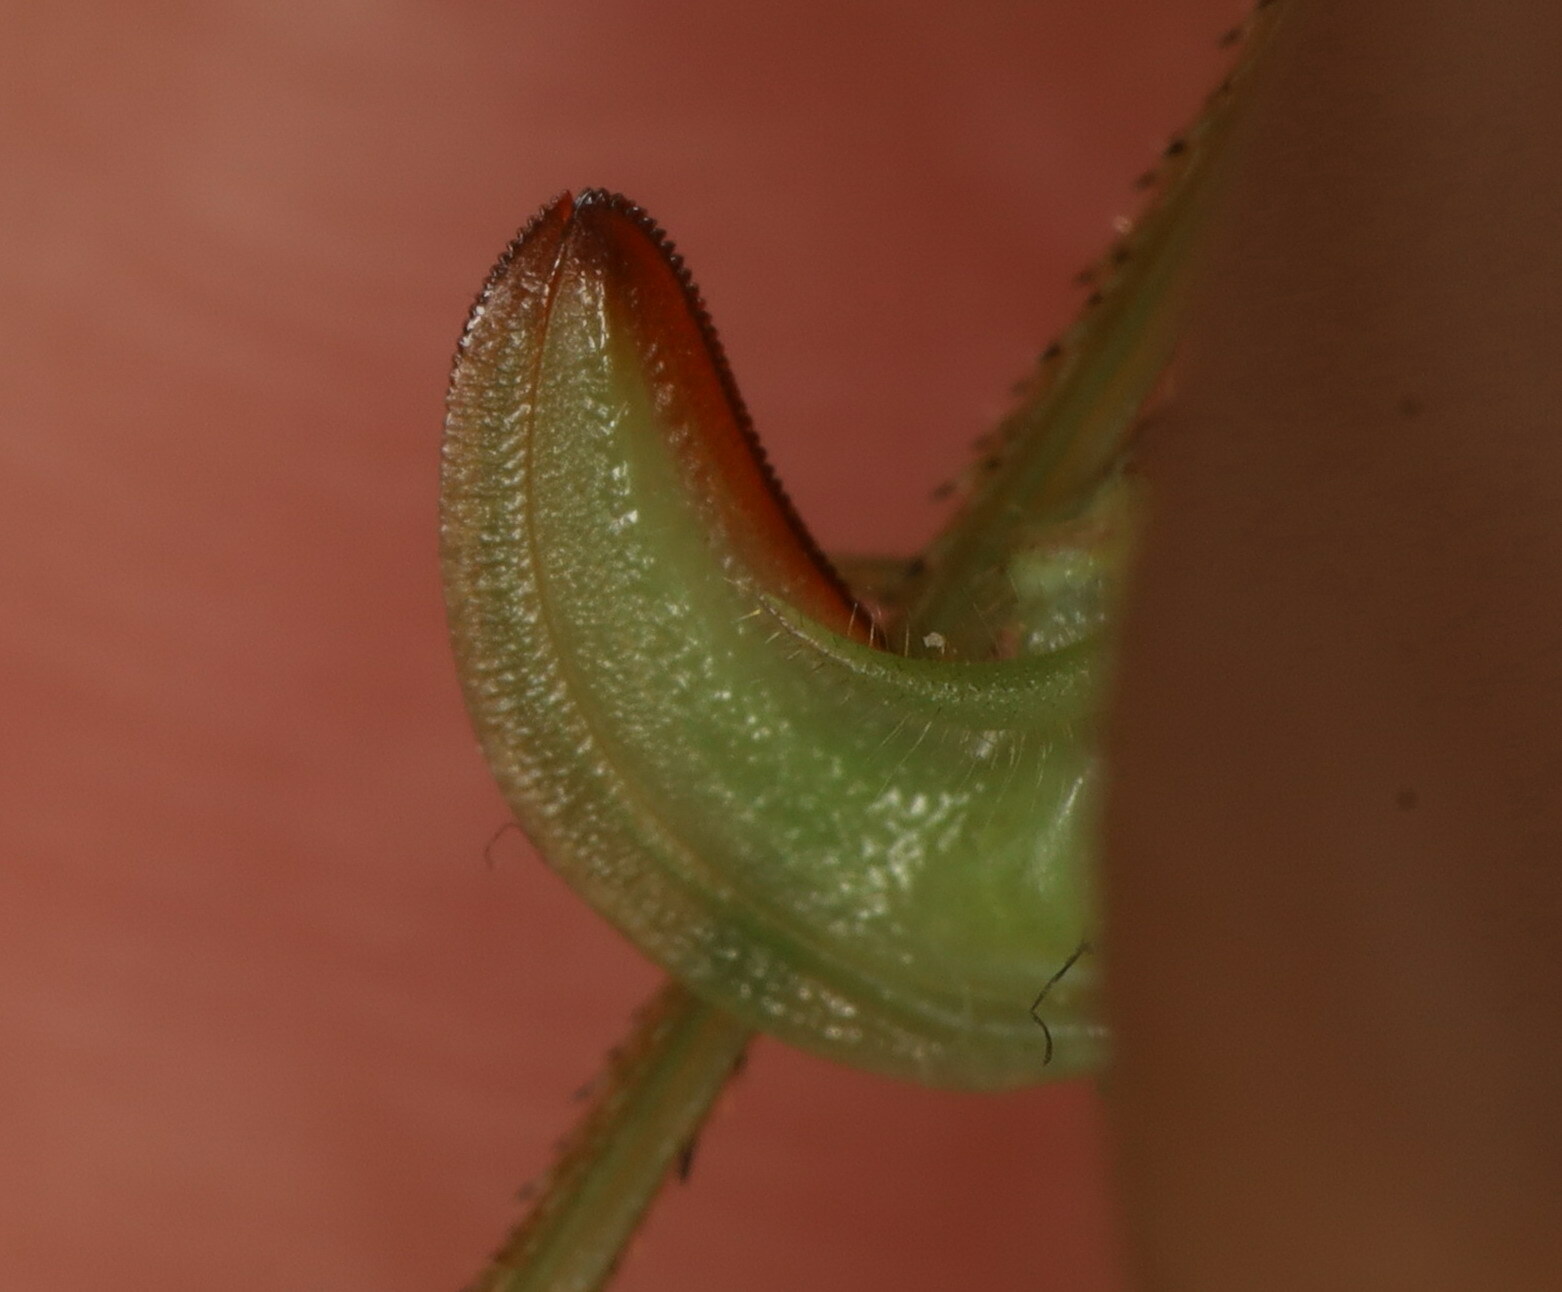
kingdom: Animalia
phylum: Arthropoda
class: Insecta
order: Orthoptera
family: Tettigoniidae
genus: Phaneroptera
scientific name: Phaneroptera nana
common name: Southern sickle bush-cricket
